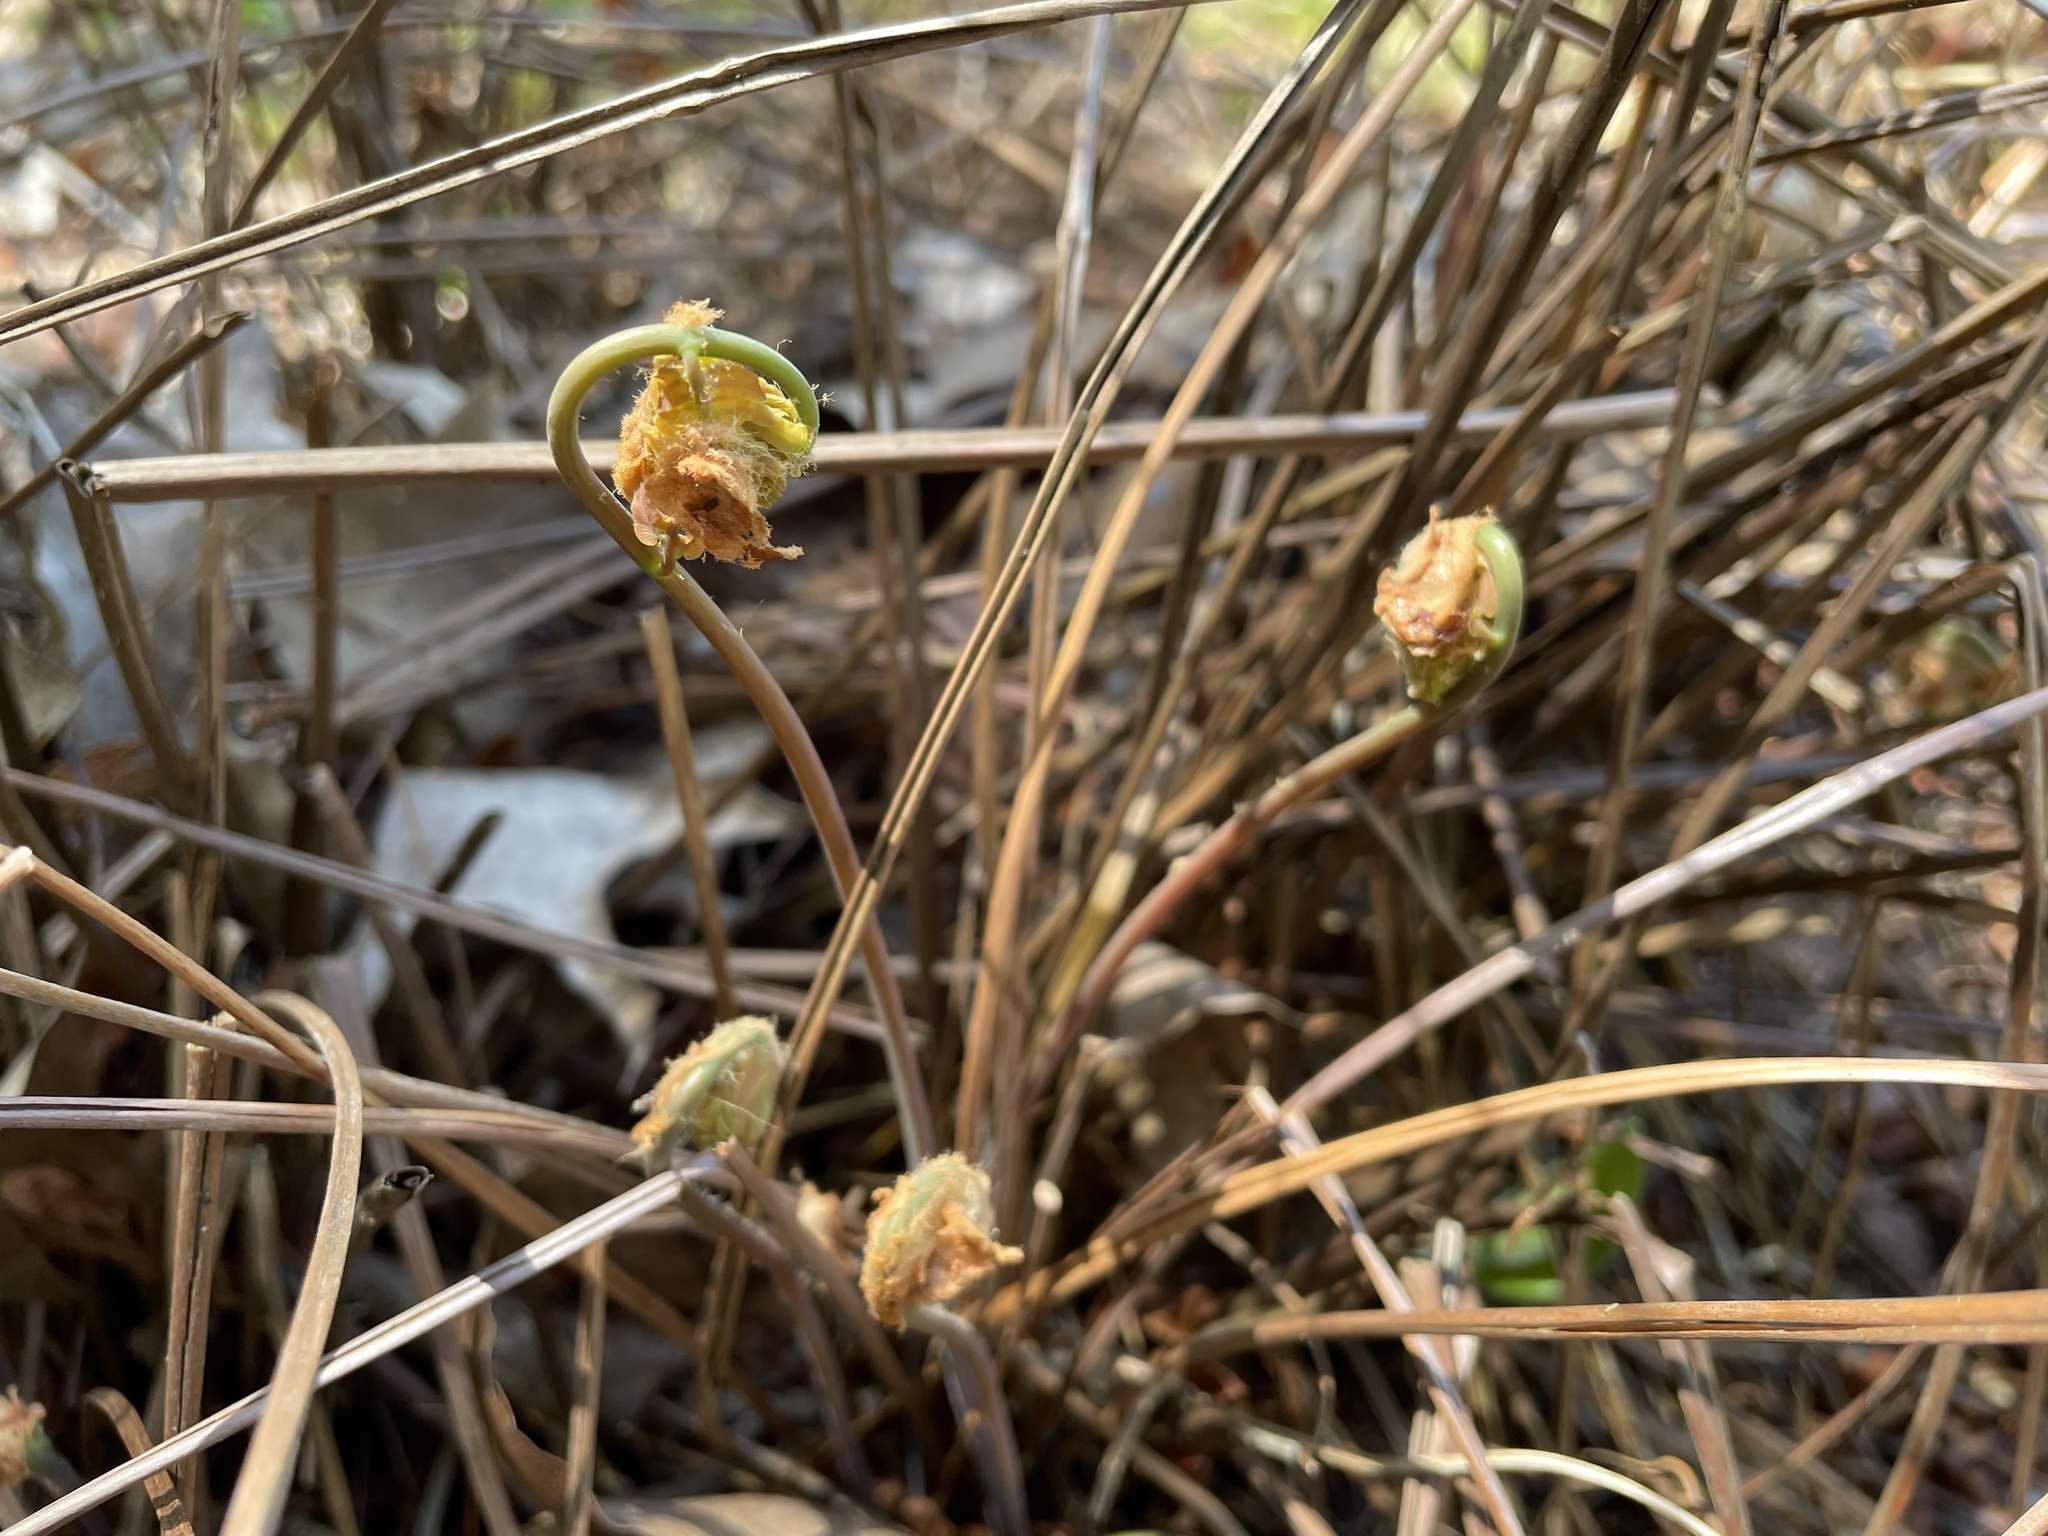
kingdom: Plantae
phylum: Tracheophyta
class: Polypodiopsida
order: Osmundales
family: Osmundaceae
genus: Osmunda
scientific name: Osmunda spectabilis
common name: American royal fern
